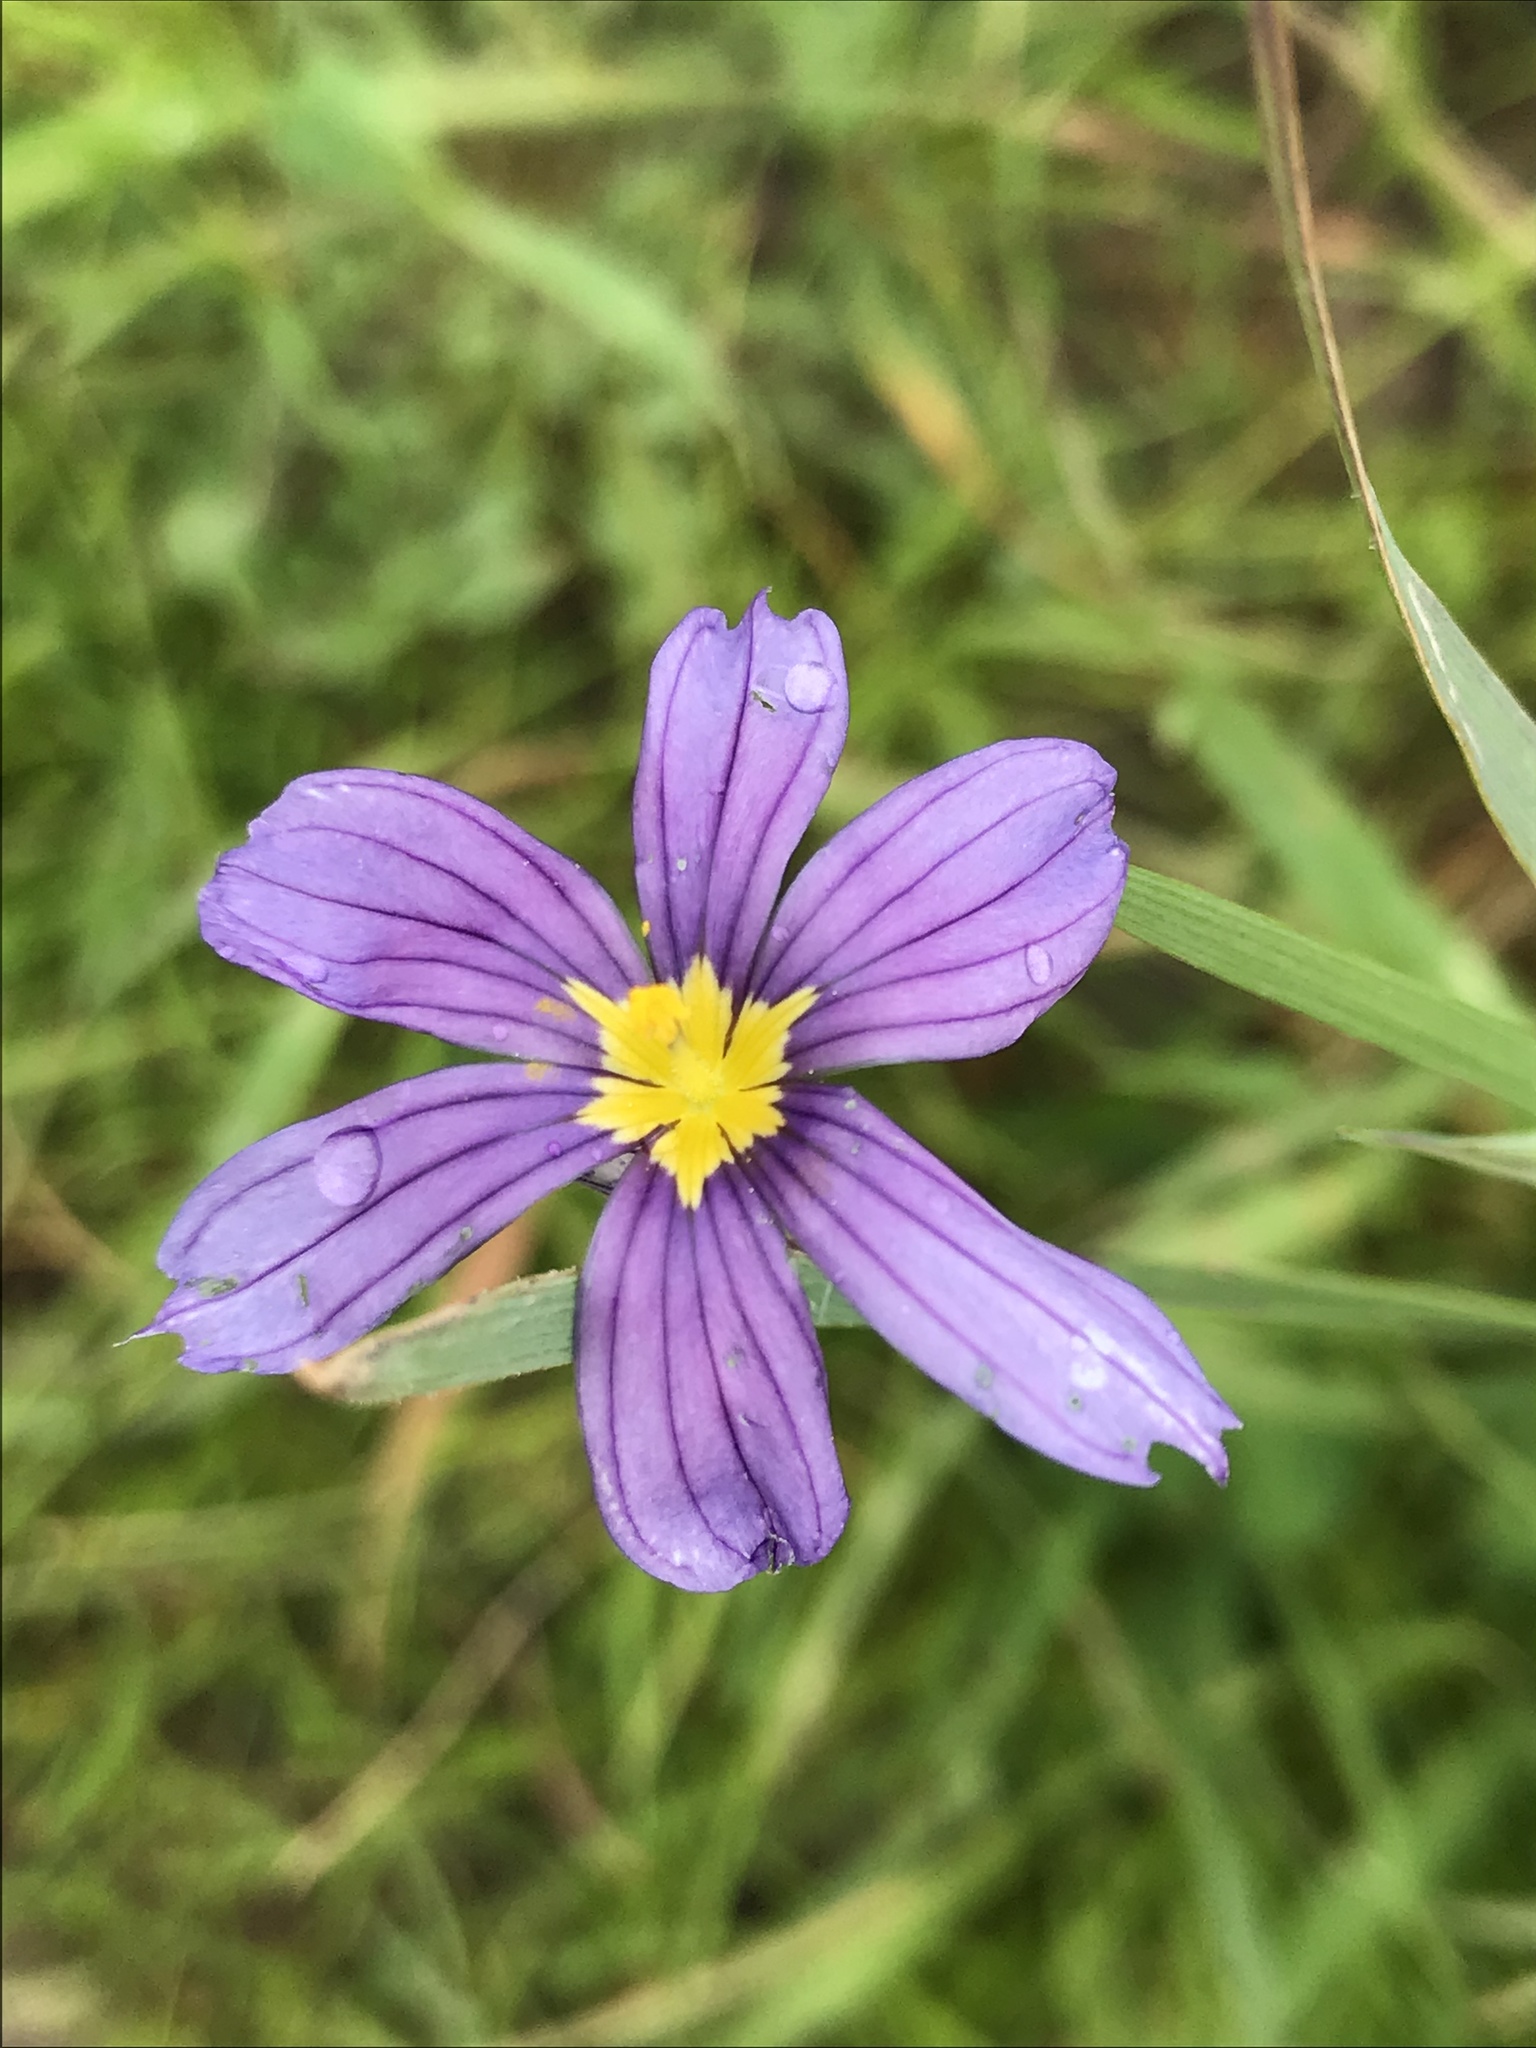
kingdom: Plantae
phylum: Tracheophyta
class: Liliopsida
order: Asparagales
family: Iridaceae
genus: Sisyrinchium
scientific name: Sisyrinchium bellum
